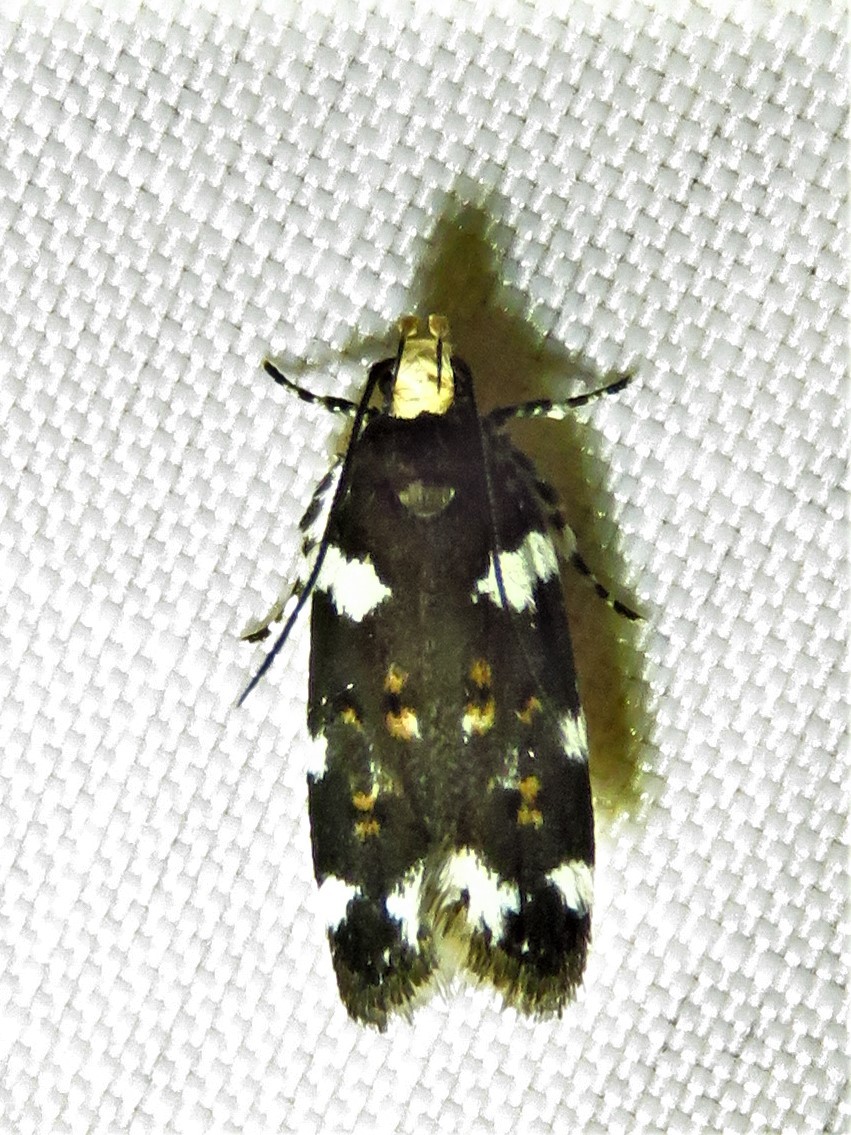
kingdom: Animalia
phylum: Arthropoda
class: Insecta
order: Lepidoptera
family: Gelechiidae
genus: Fascista
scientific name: Fascista cercerisella
